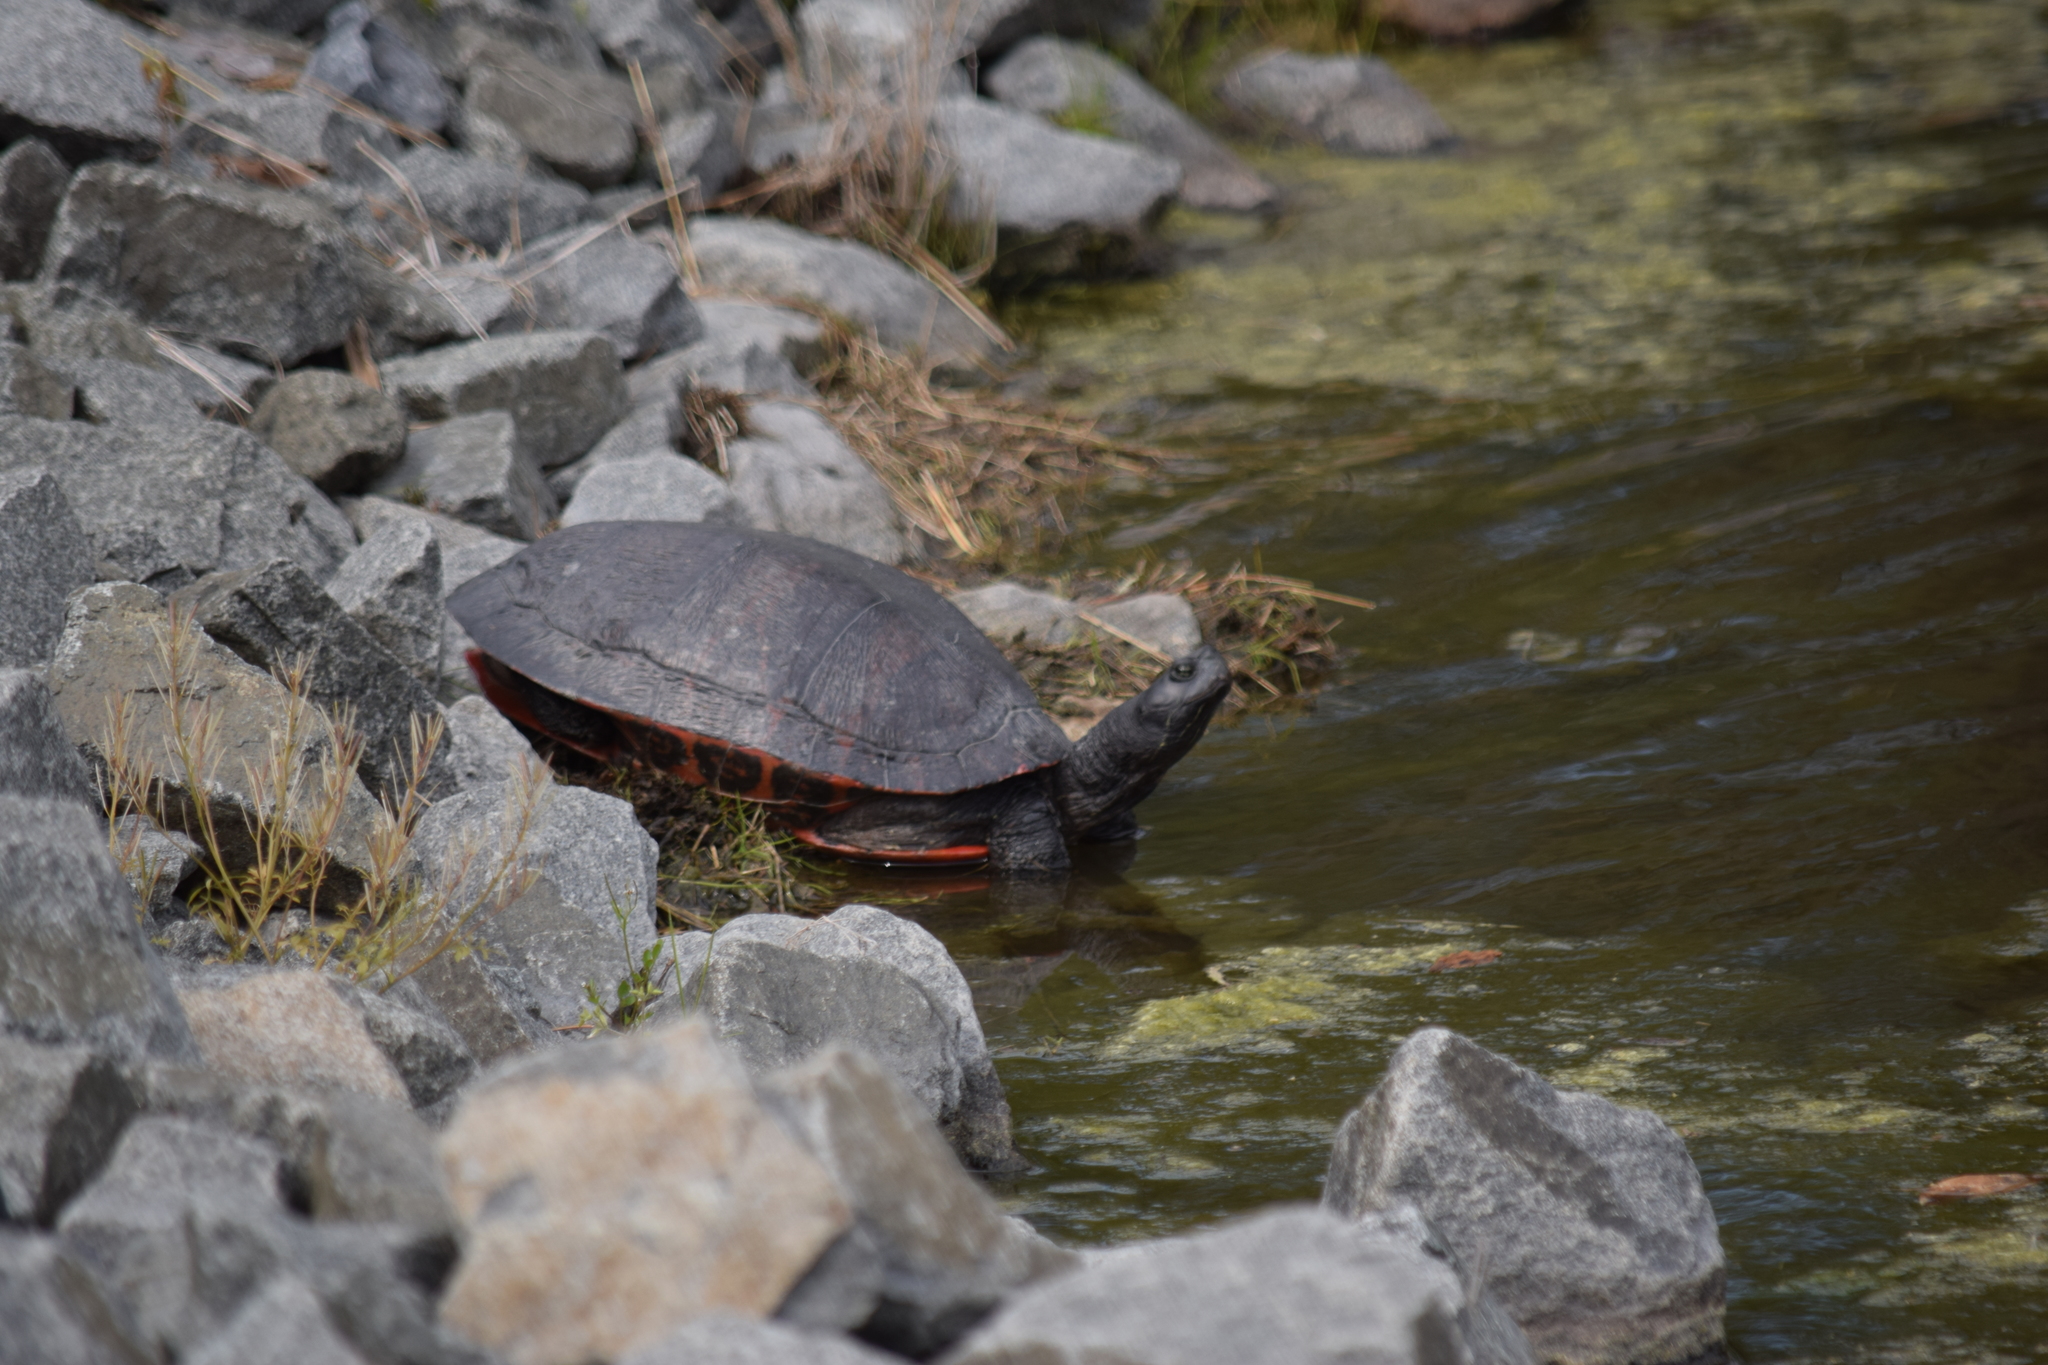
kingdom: Animalia
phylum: Chordata
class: Testudines
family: Emydidae
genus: Pseudemys
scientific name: Pseudemys rubriventris
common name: American red-bellied turtle
